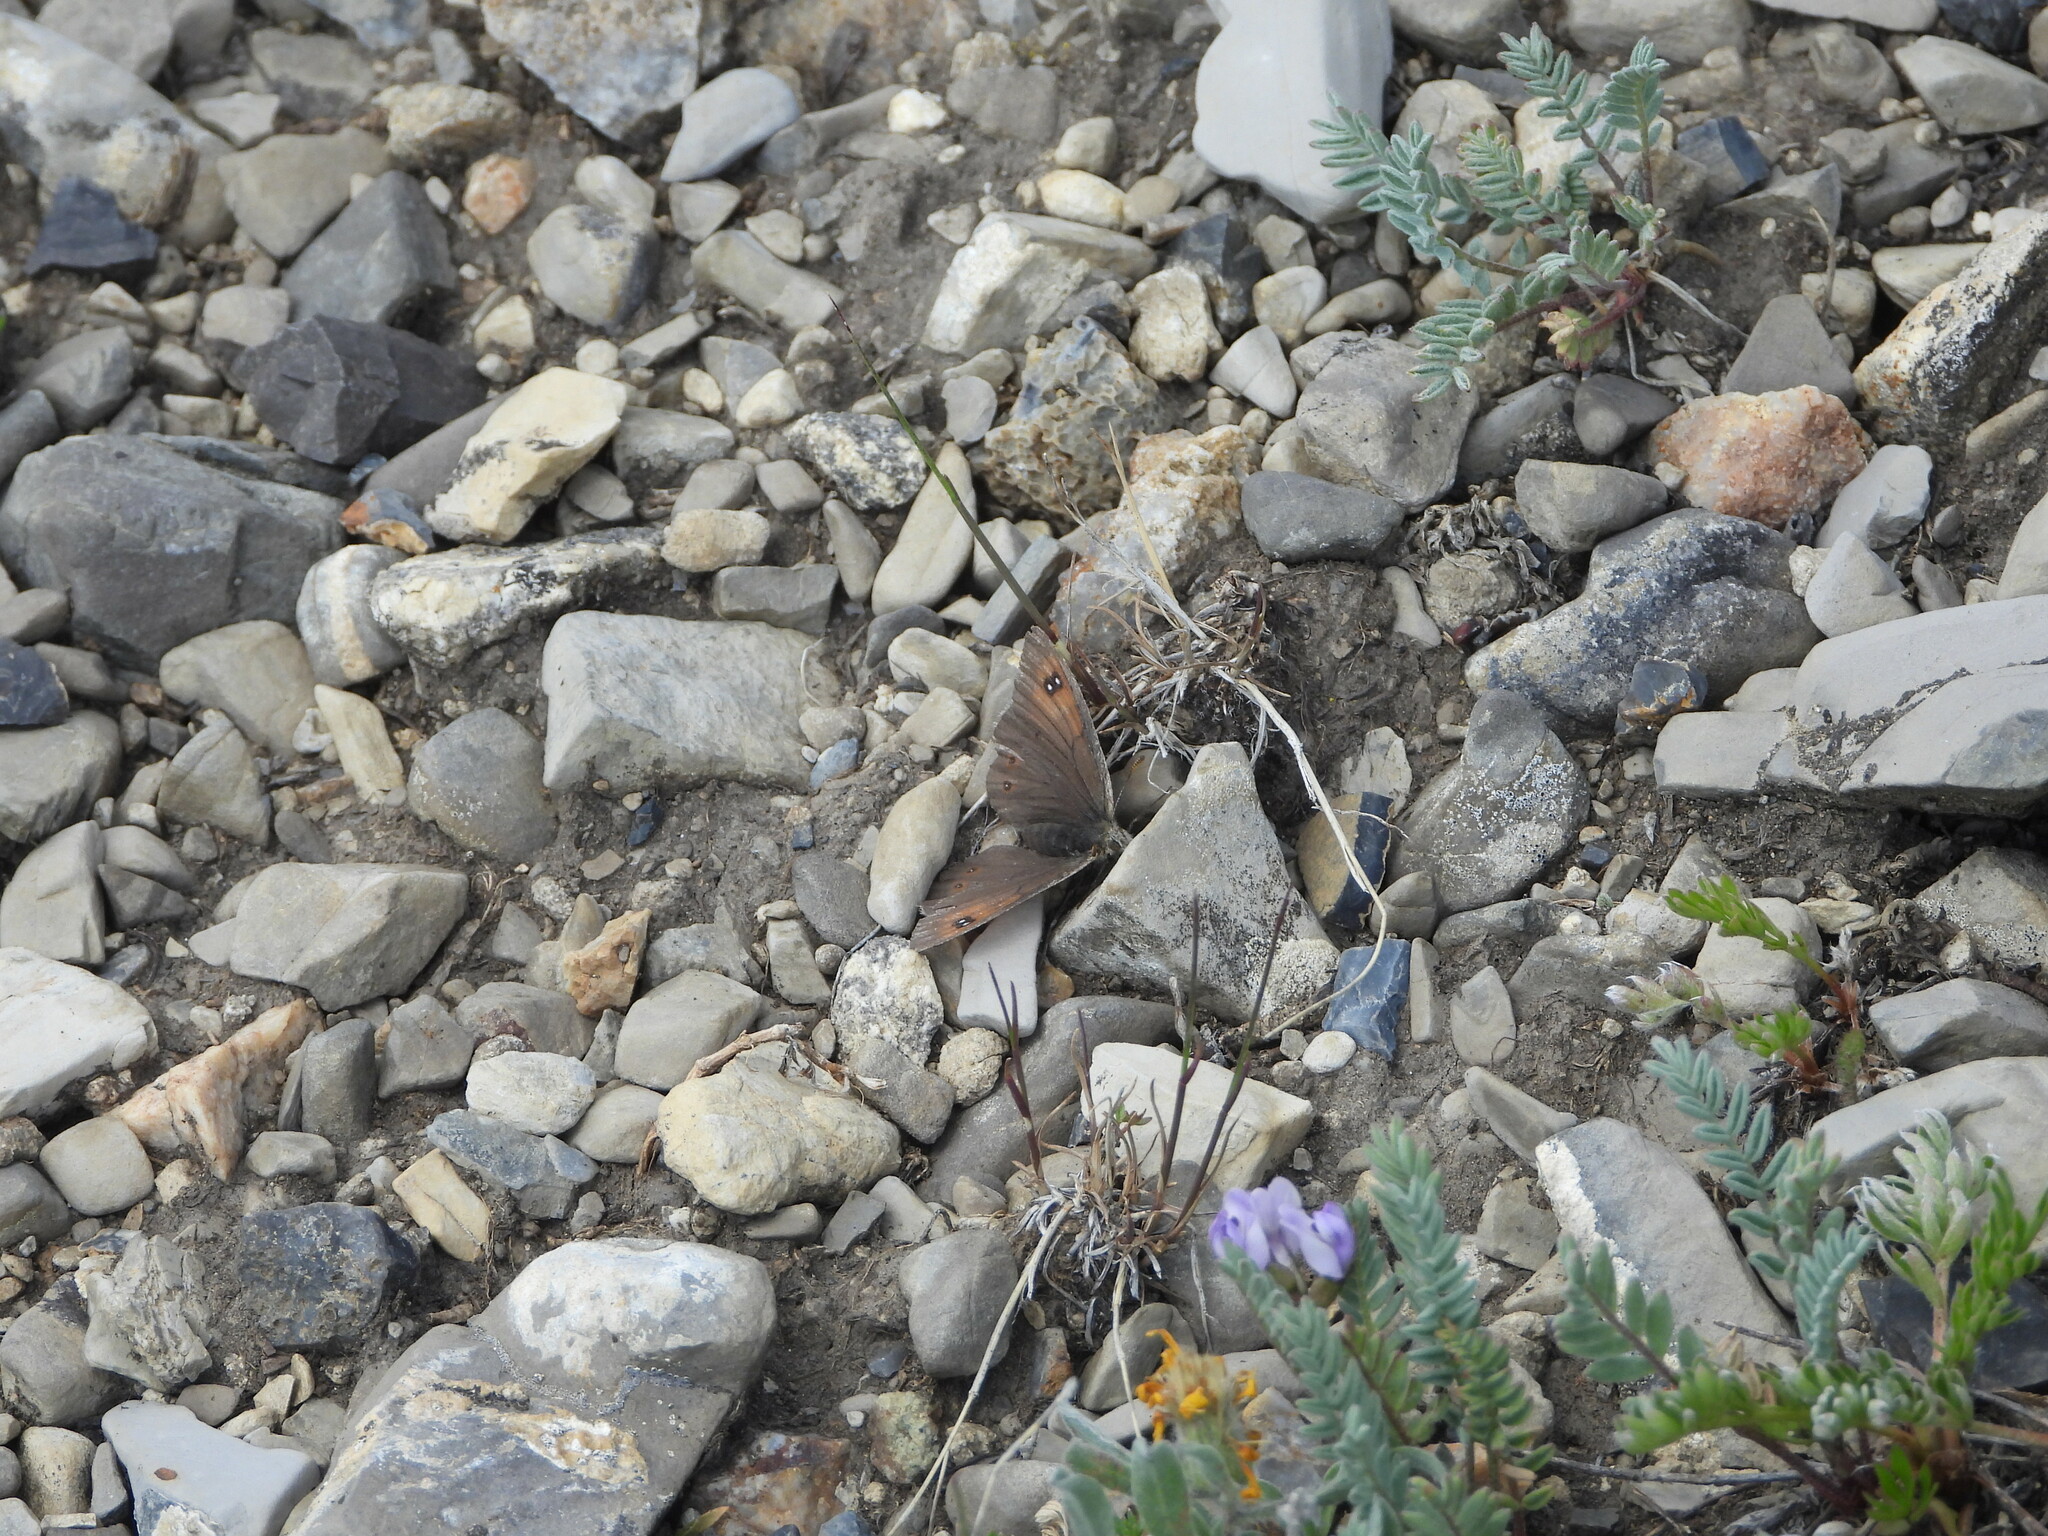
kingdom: Animalia
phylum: Arthropoda
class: Insecta
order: Lepidoptera
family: Nymphalidae
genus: Erebia
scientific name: Erebia tyndarus
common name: Swiss brassy ringlet
